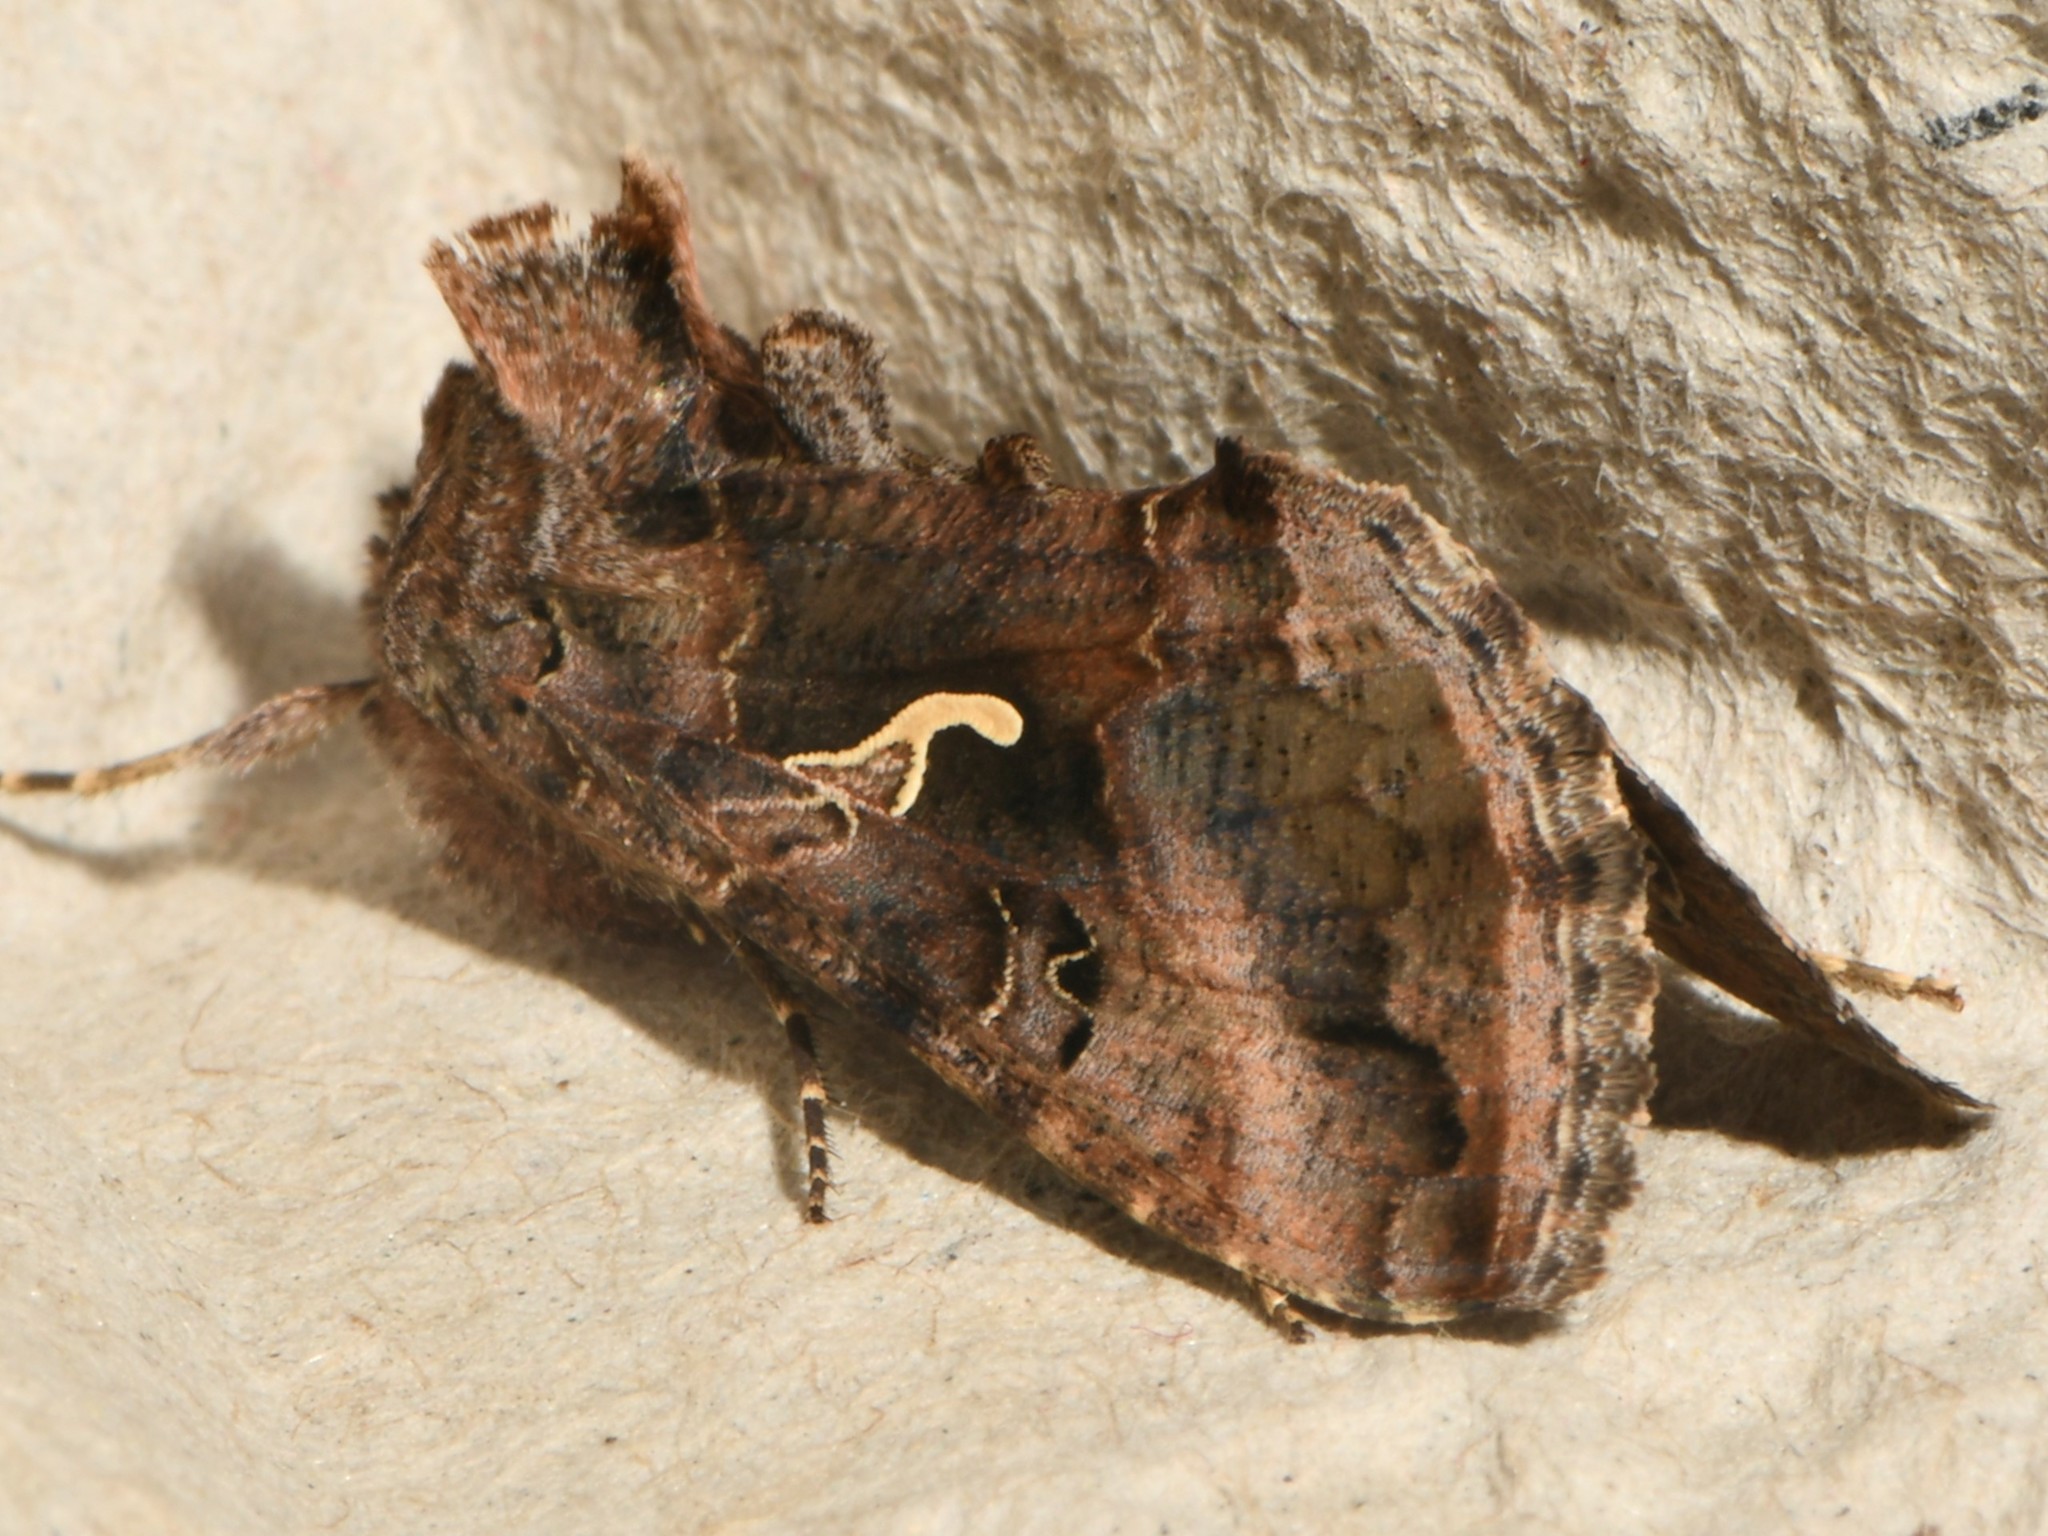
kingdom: Animalia
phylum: Arthropoda
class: Insecta
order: Lepidoptera
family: Noctuidae
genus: Autographa
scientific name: Autographa gamma
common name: Silver y
